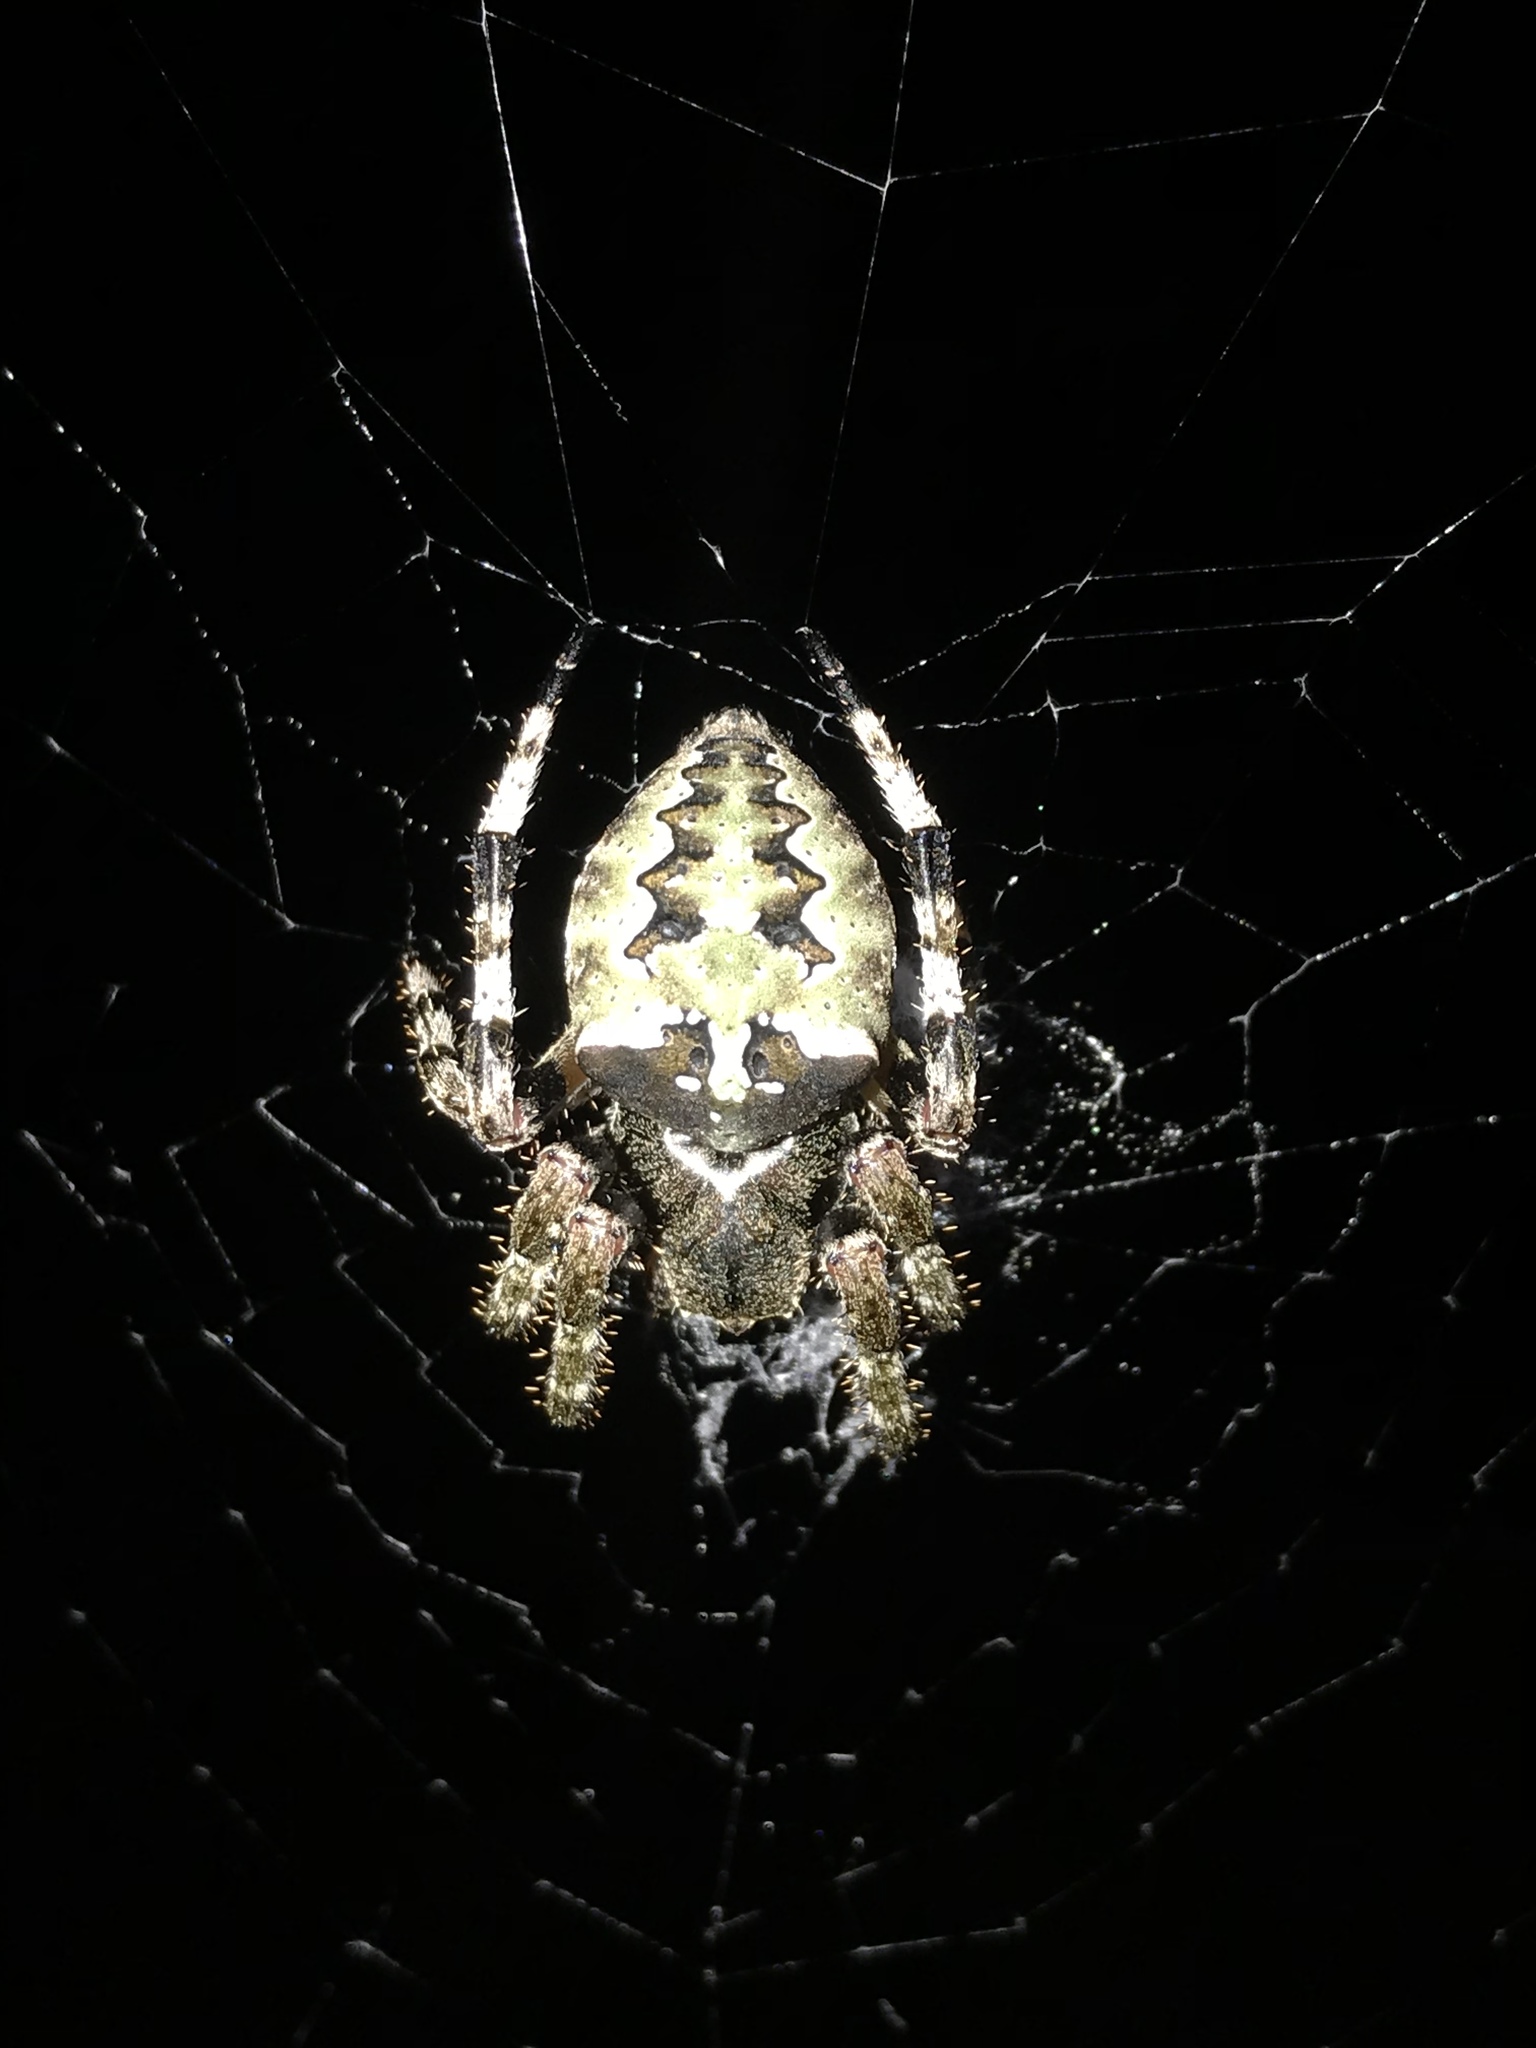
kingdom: Animalia
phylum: Arthropoda
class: Arachnida
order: Araneae
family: Araneidae
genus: Araneus
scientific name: Araneus bicentenarius
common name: Giant lichen orbweaver
